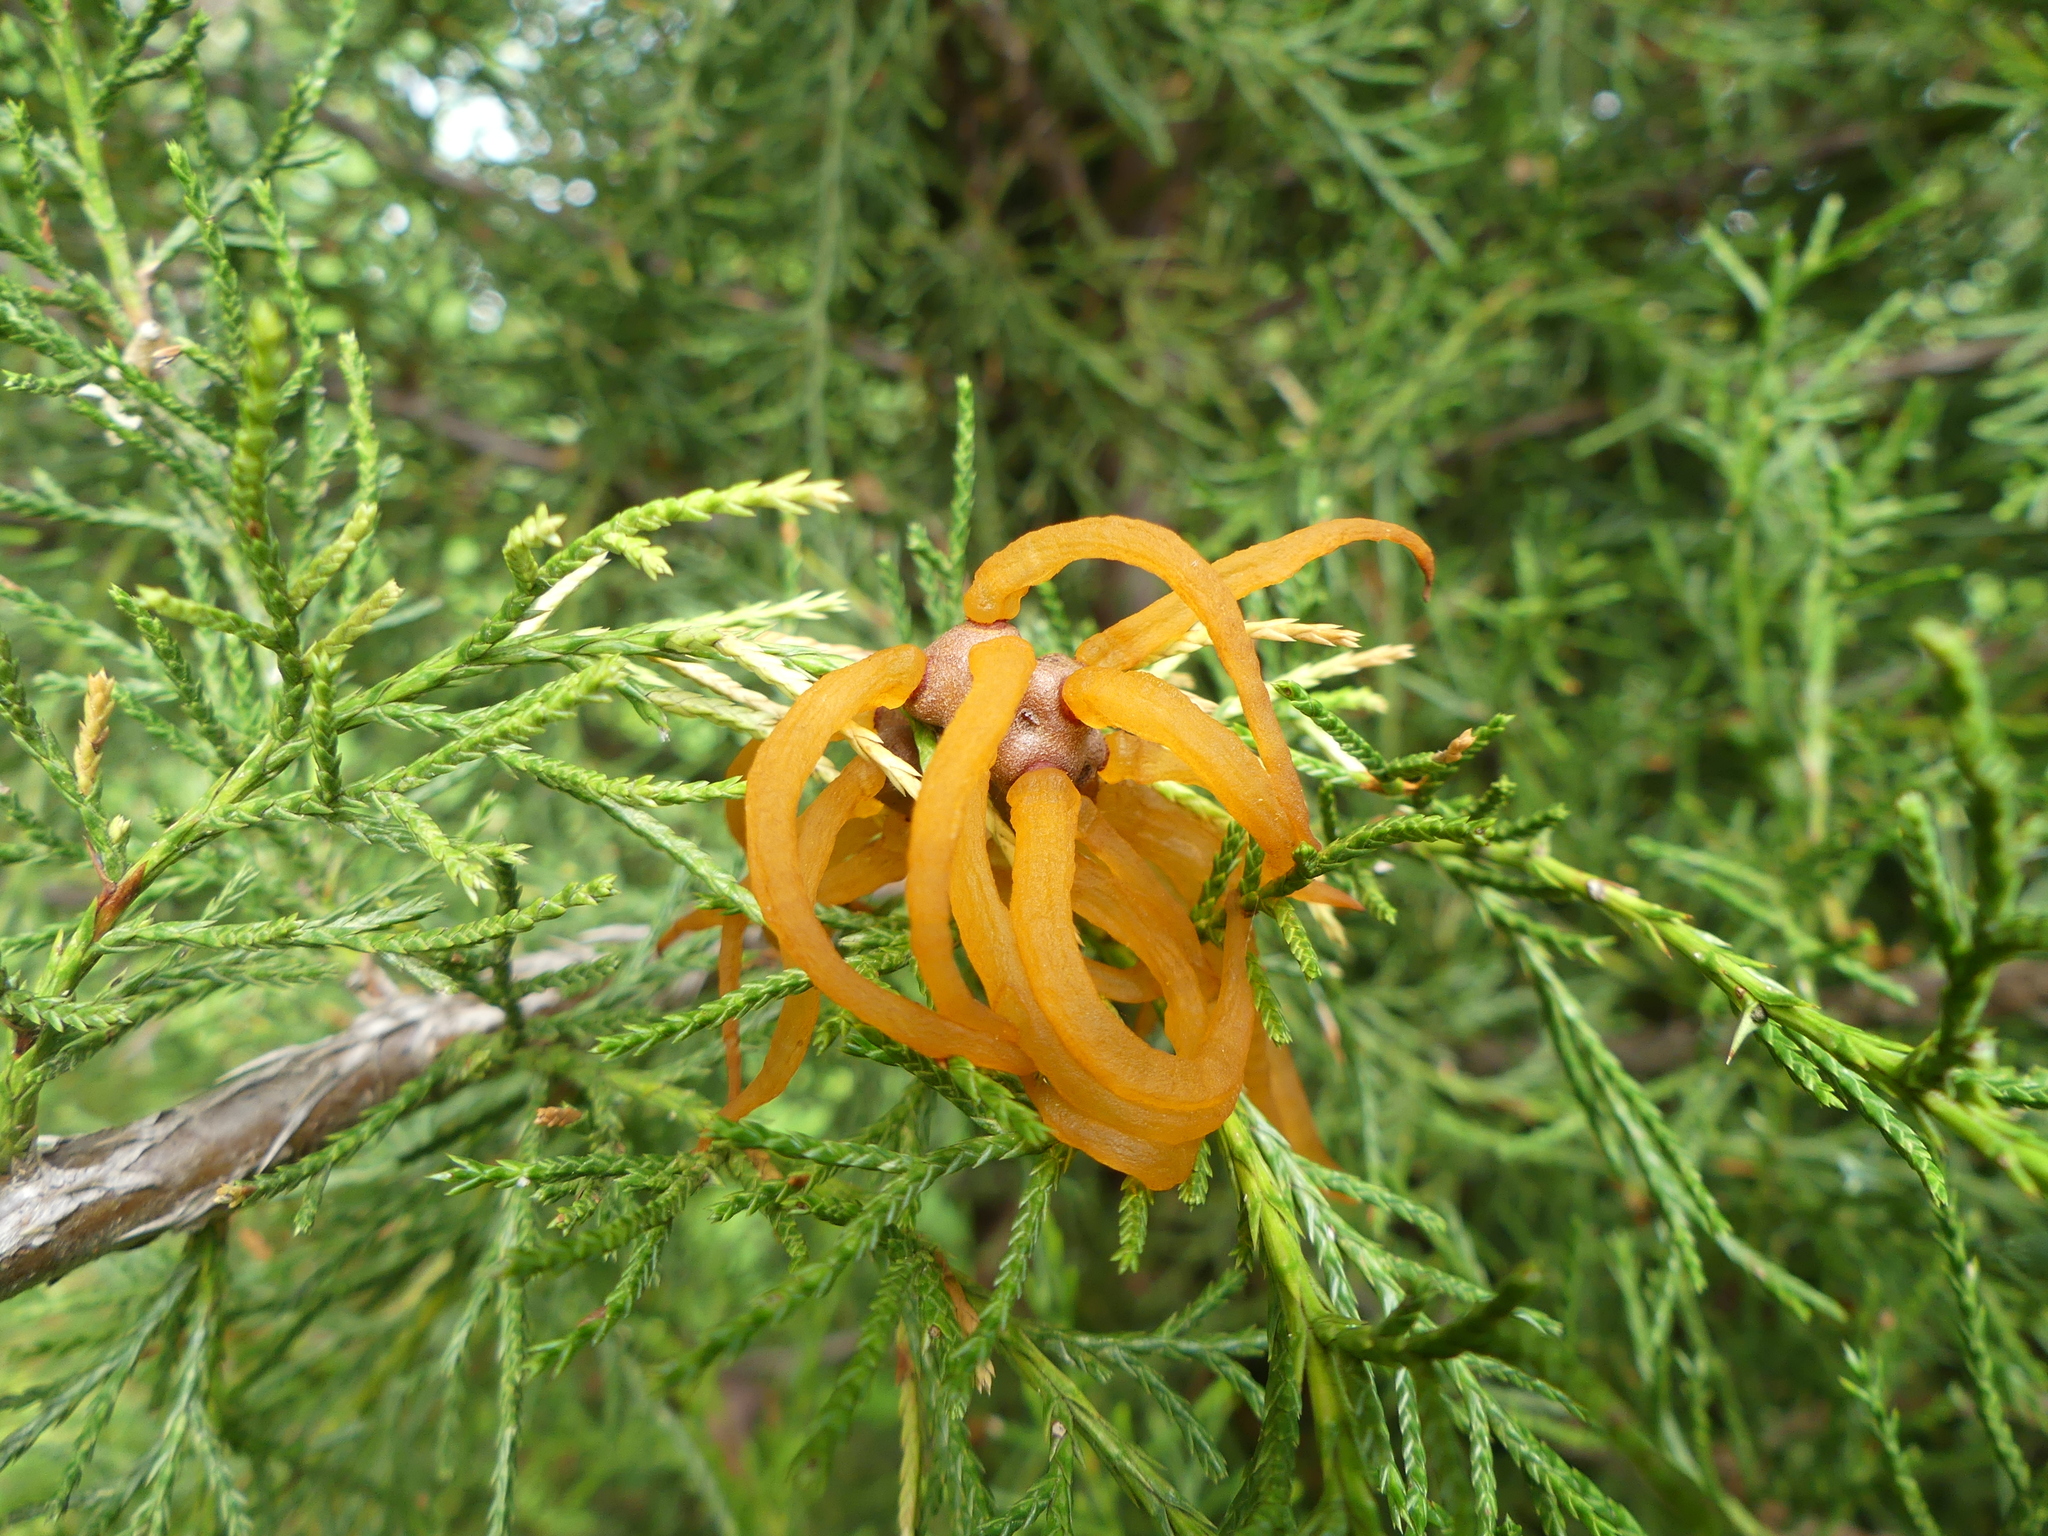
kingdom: Fungi
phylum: Basidiomycota
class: Pucciniomycetes
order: Pucciniales
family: Gymnosporangiaceae
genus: Gymnosporangium
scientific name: Gymnosporangium juniperi-virginianae
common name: Juniper-apple rust
